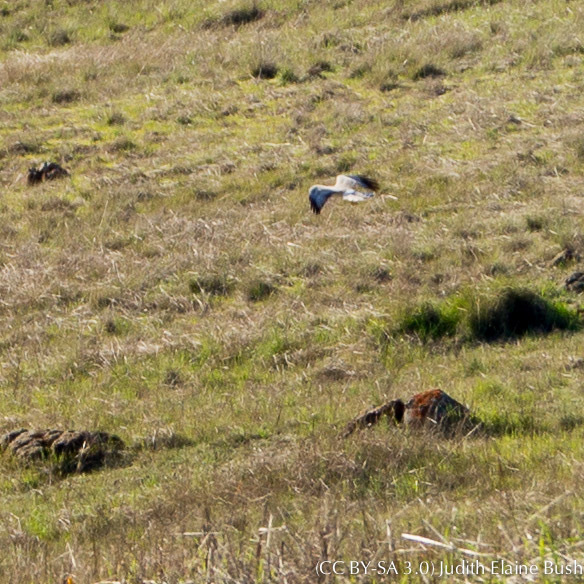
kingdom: Animalia
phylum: Chordata
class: Aves
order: Accipitriformes
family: Accipitridae
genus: Elanus
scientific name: Elanus leucurus
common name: White-tailed kite
